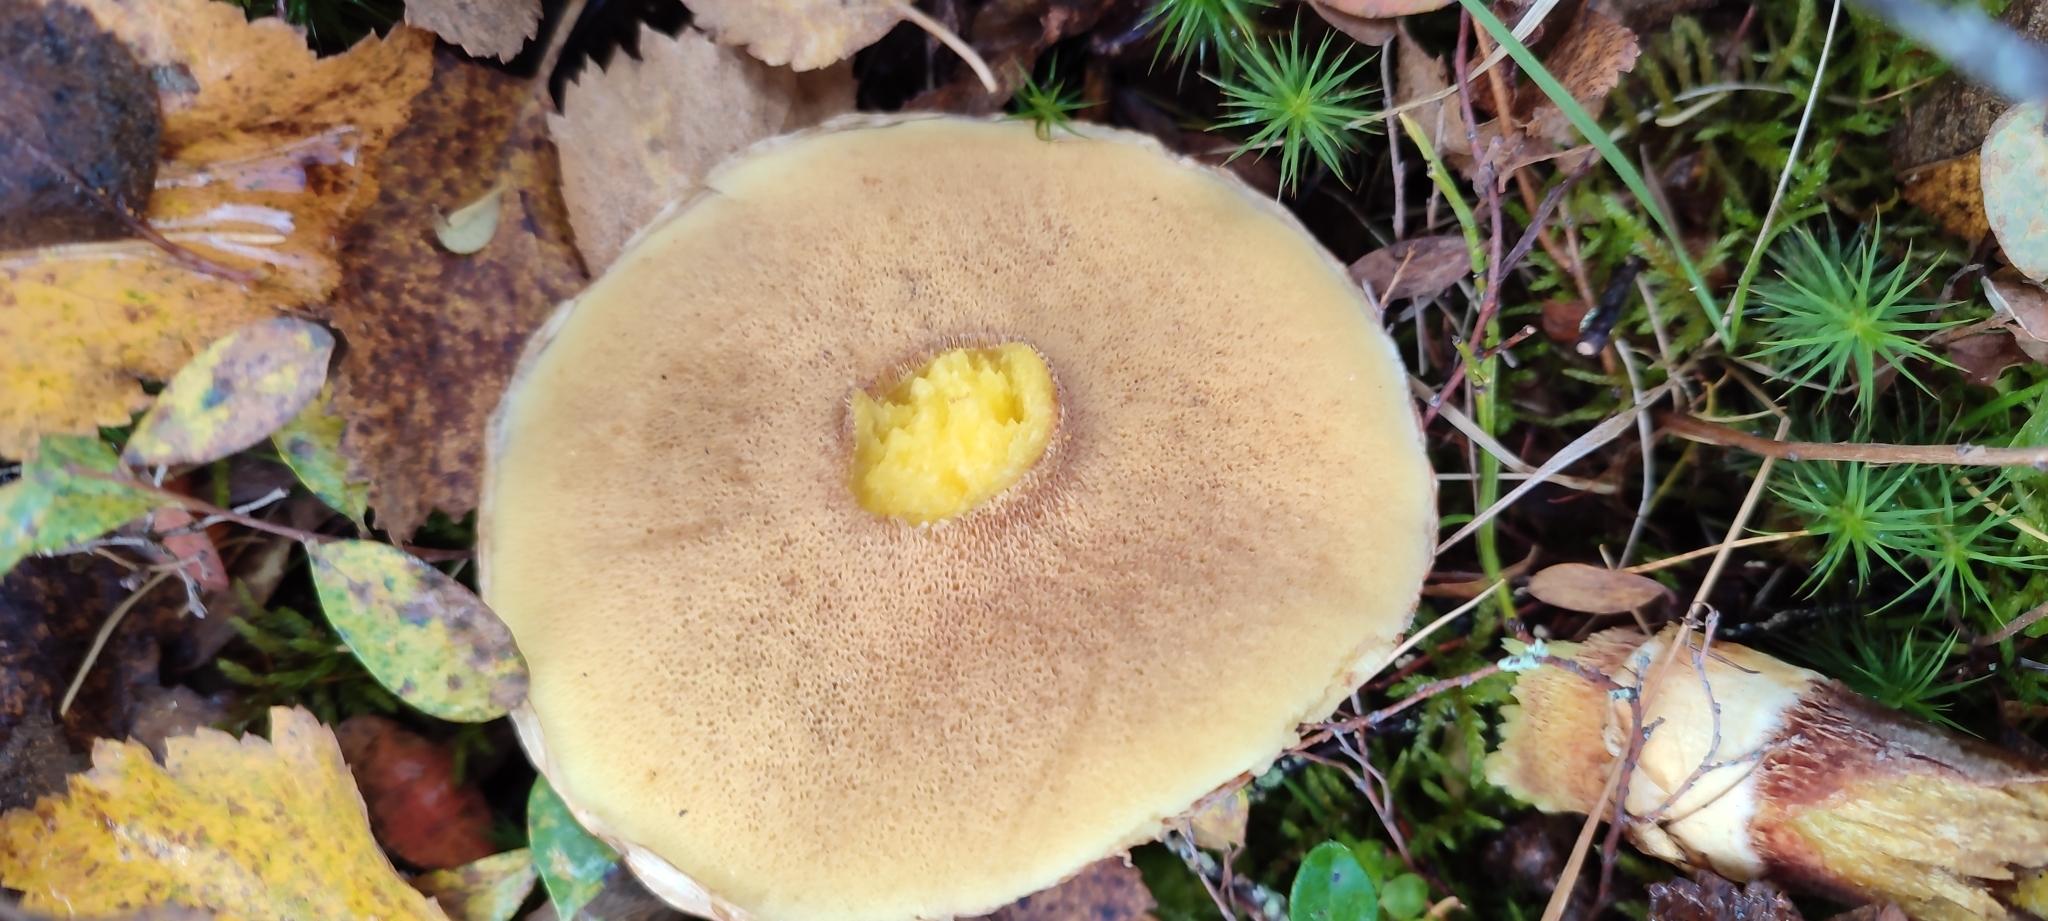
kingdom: Fungi
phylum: Basidiomycota
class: Agaricomycetes
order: Boletales
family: Suillaceae
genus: Suillus
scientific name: Suillus grevillei
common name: Larch bolete
